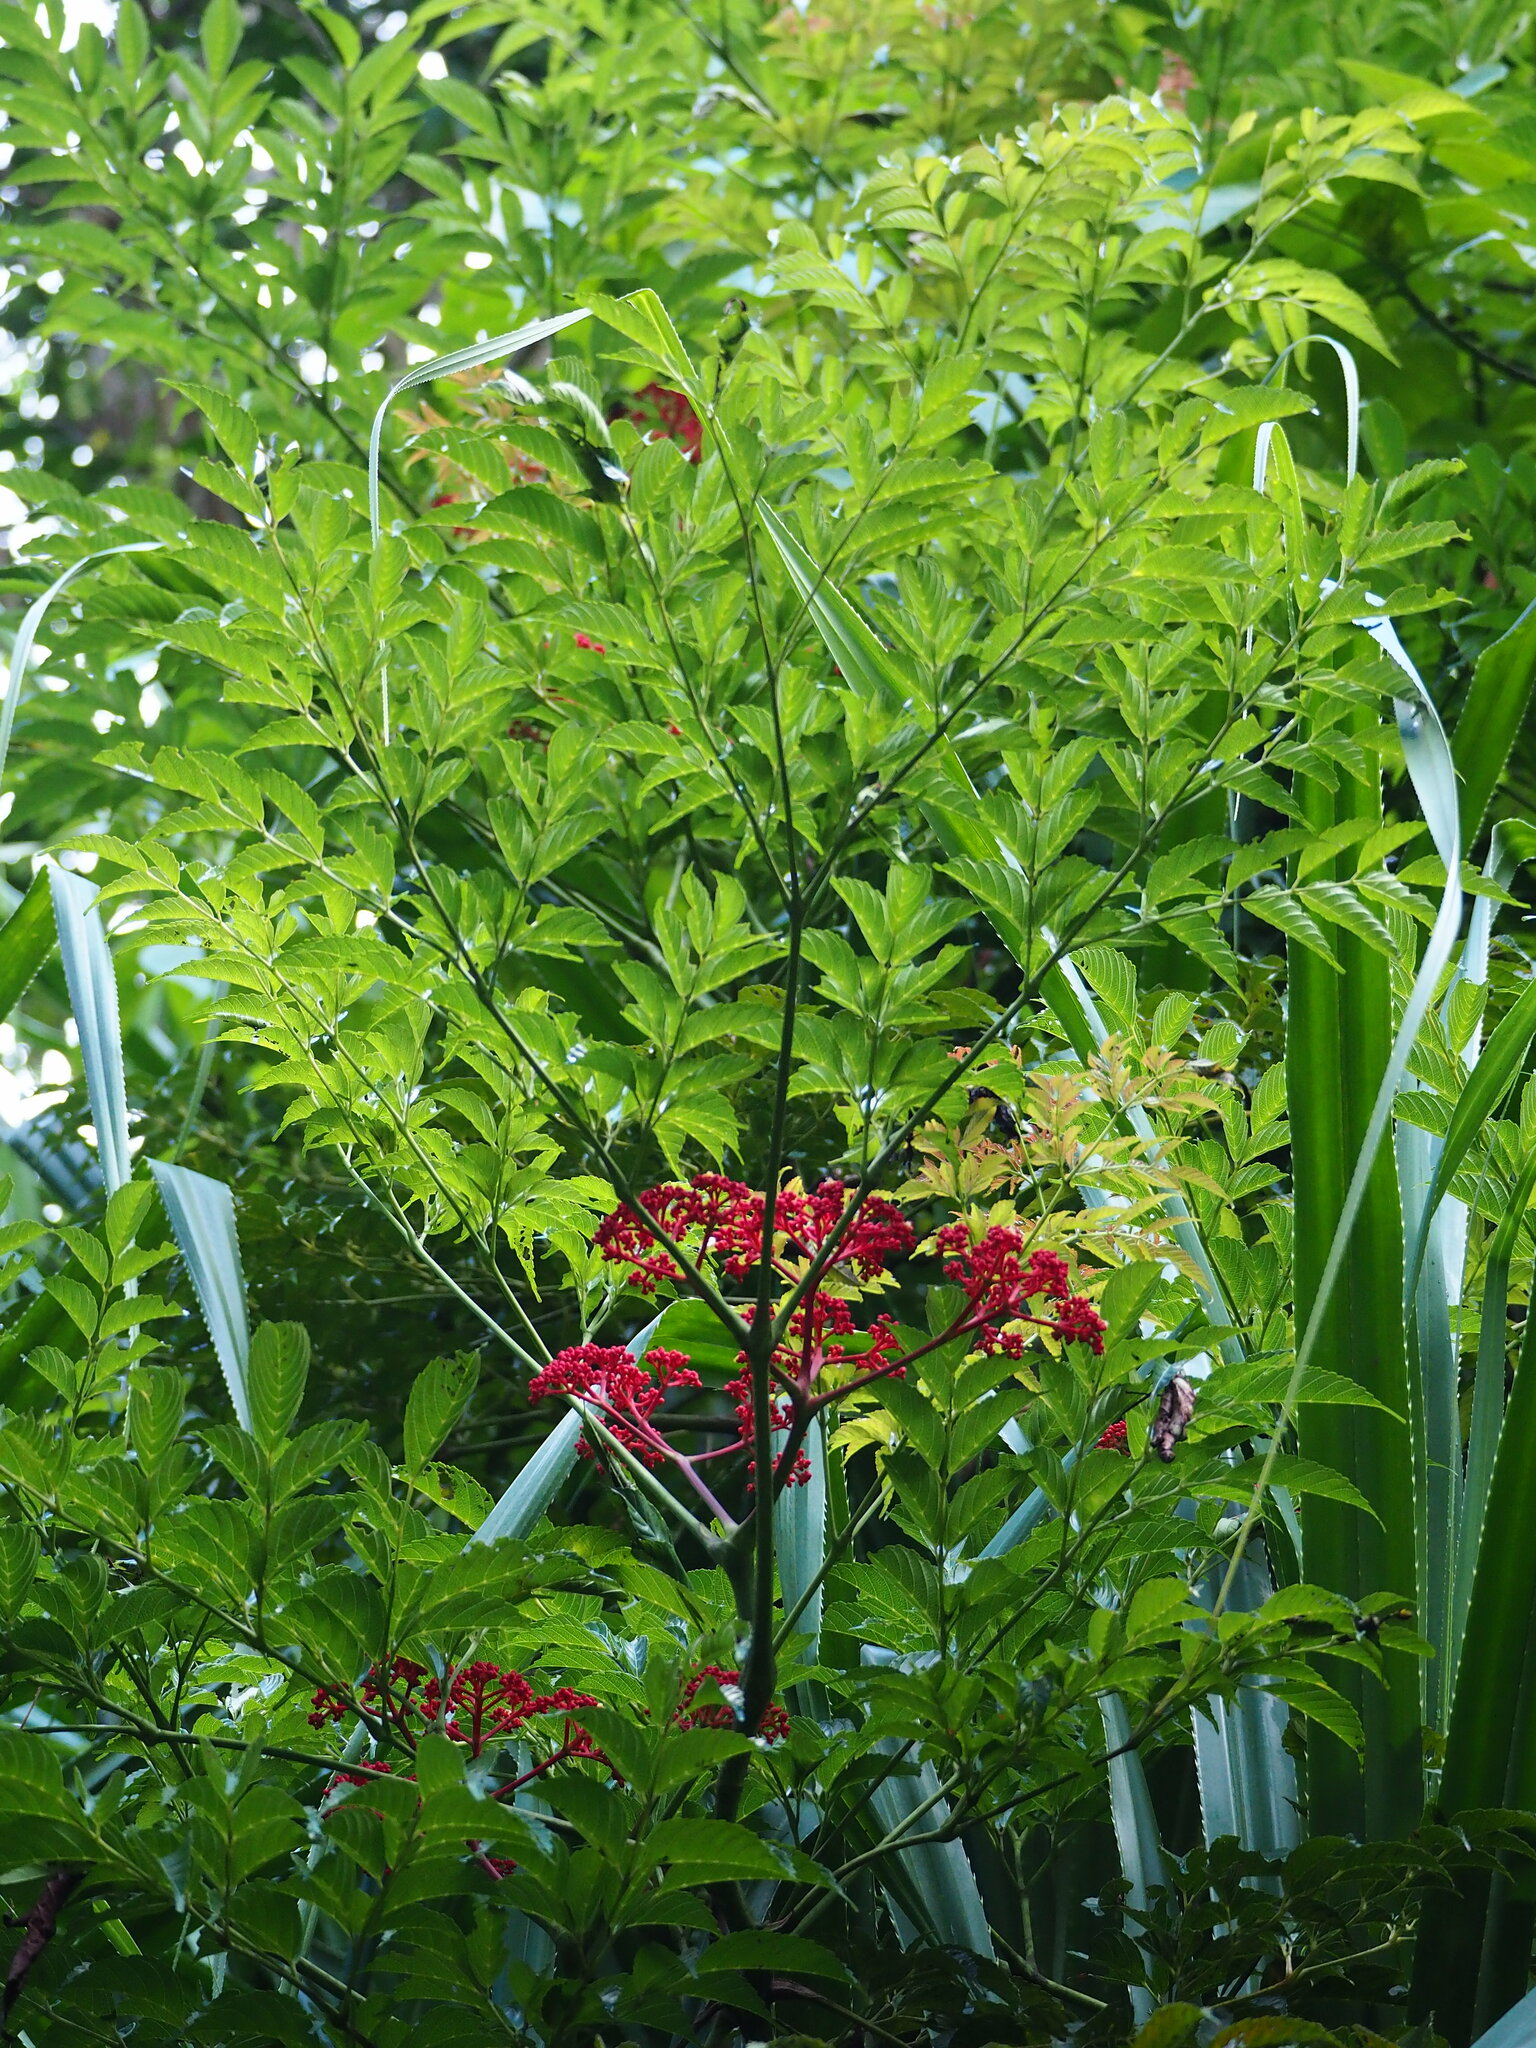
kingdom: Plantae
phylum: Tracheophyta
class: Magnoliopsida
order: Vitales
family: Vitaceae
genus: Leea
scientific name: Leea guineensis
